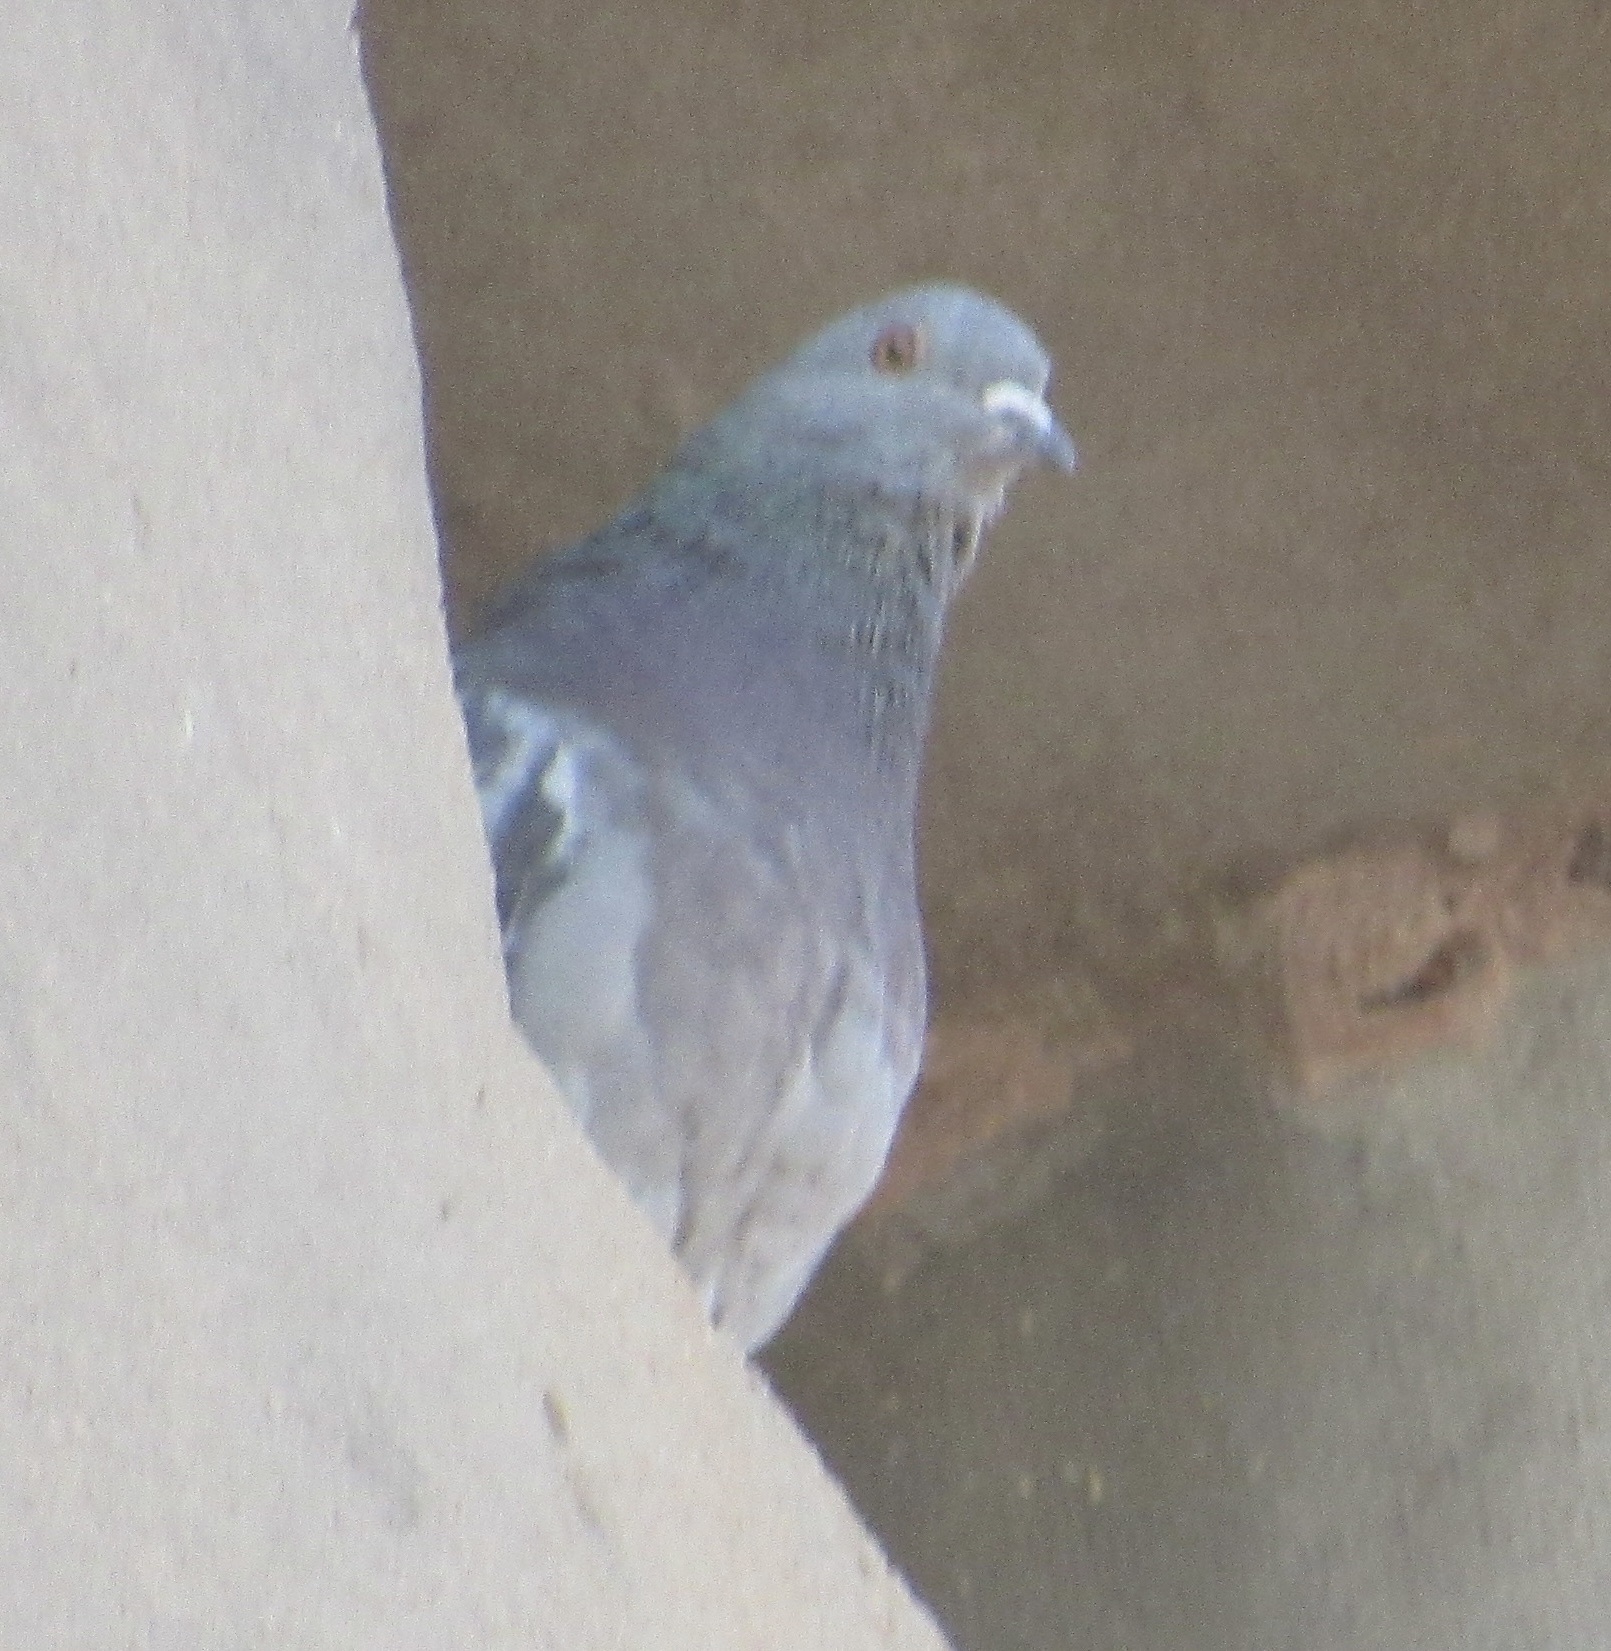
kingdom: Animalia
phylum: Chordata
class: Aves
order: Columbiformes
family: Columbidae
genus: Columba
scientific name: Columba livia
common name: Rock pigeon
